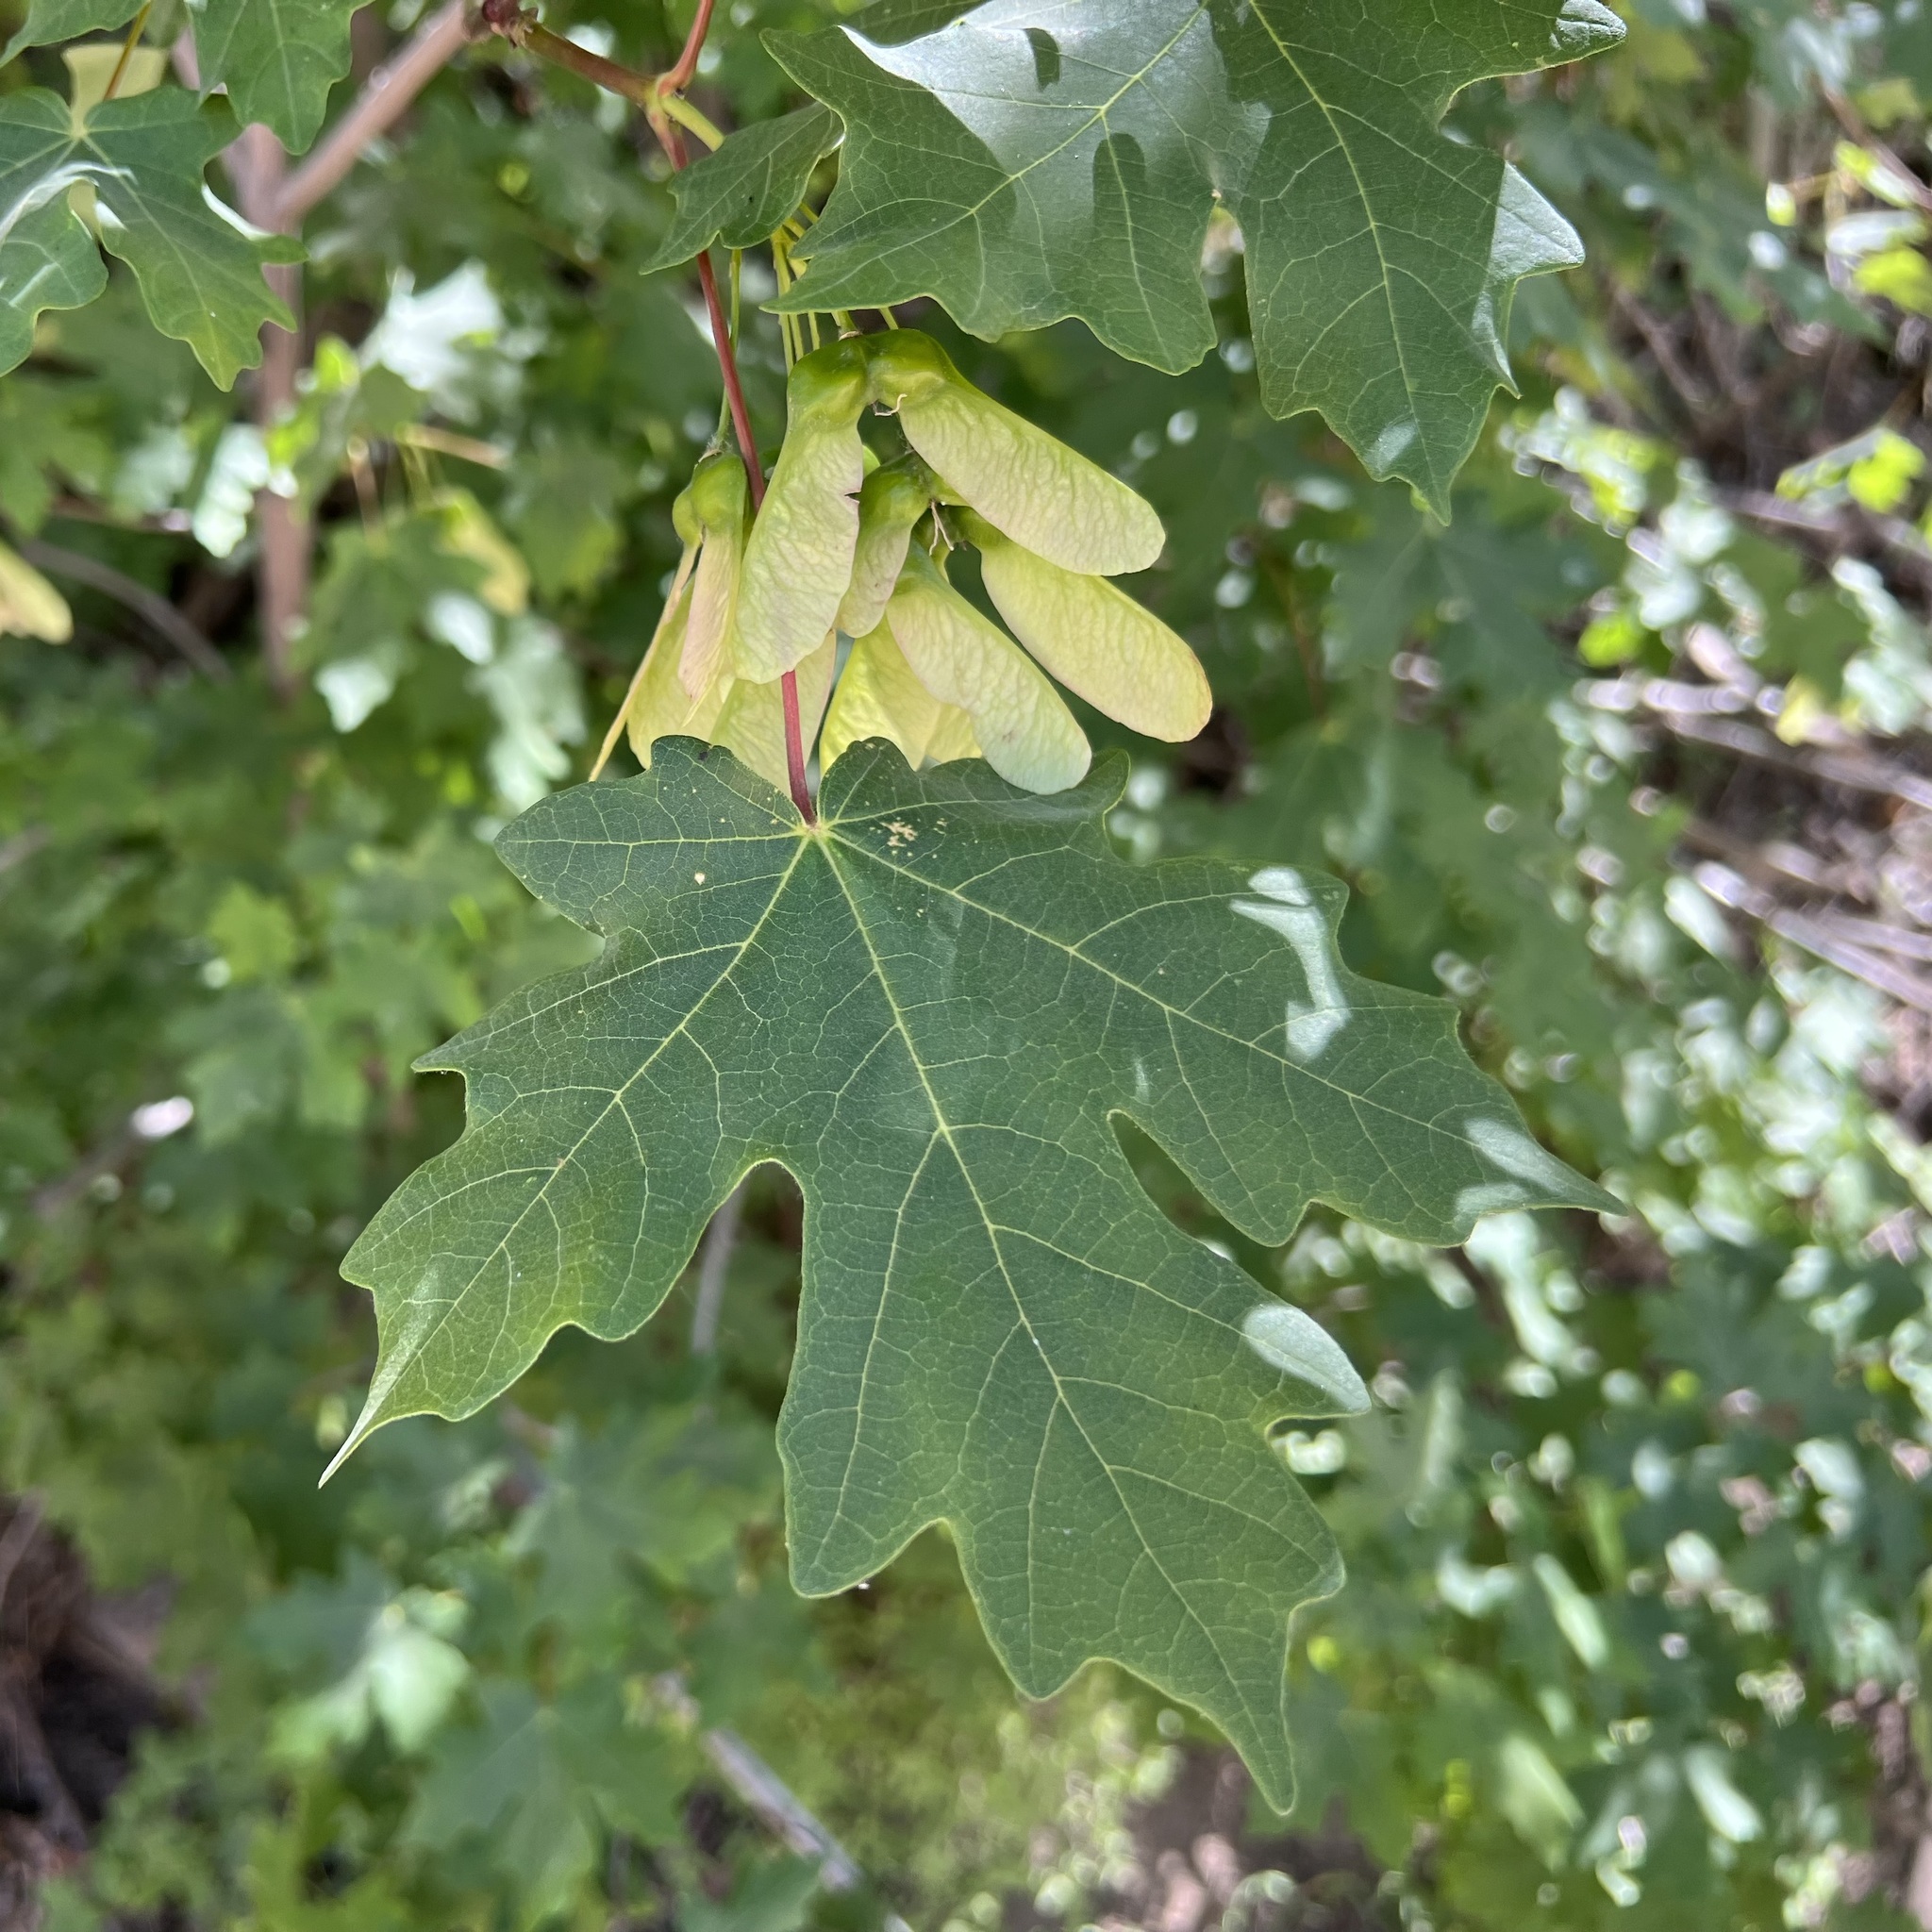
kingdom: Plantae
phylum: Tracheophyta
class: Magnoliopsida
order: Sapindales
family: Sapindaceae
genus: Acer
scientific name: Acer grandidentatum
